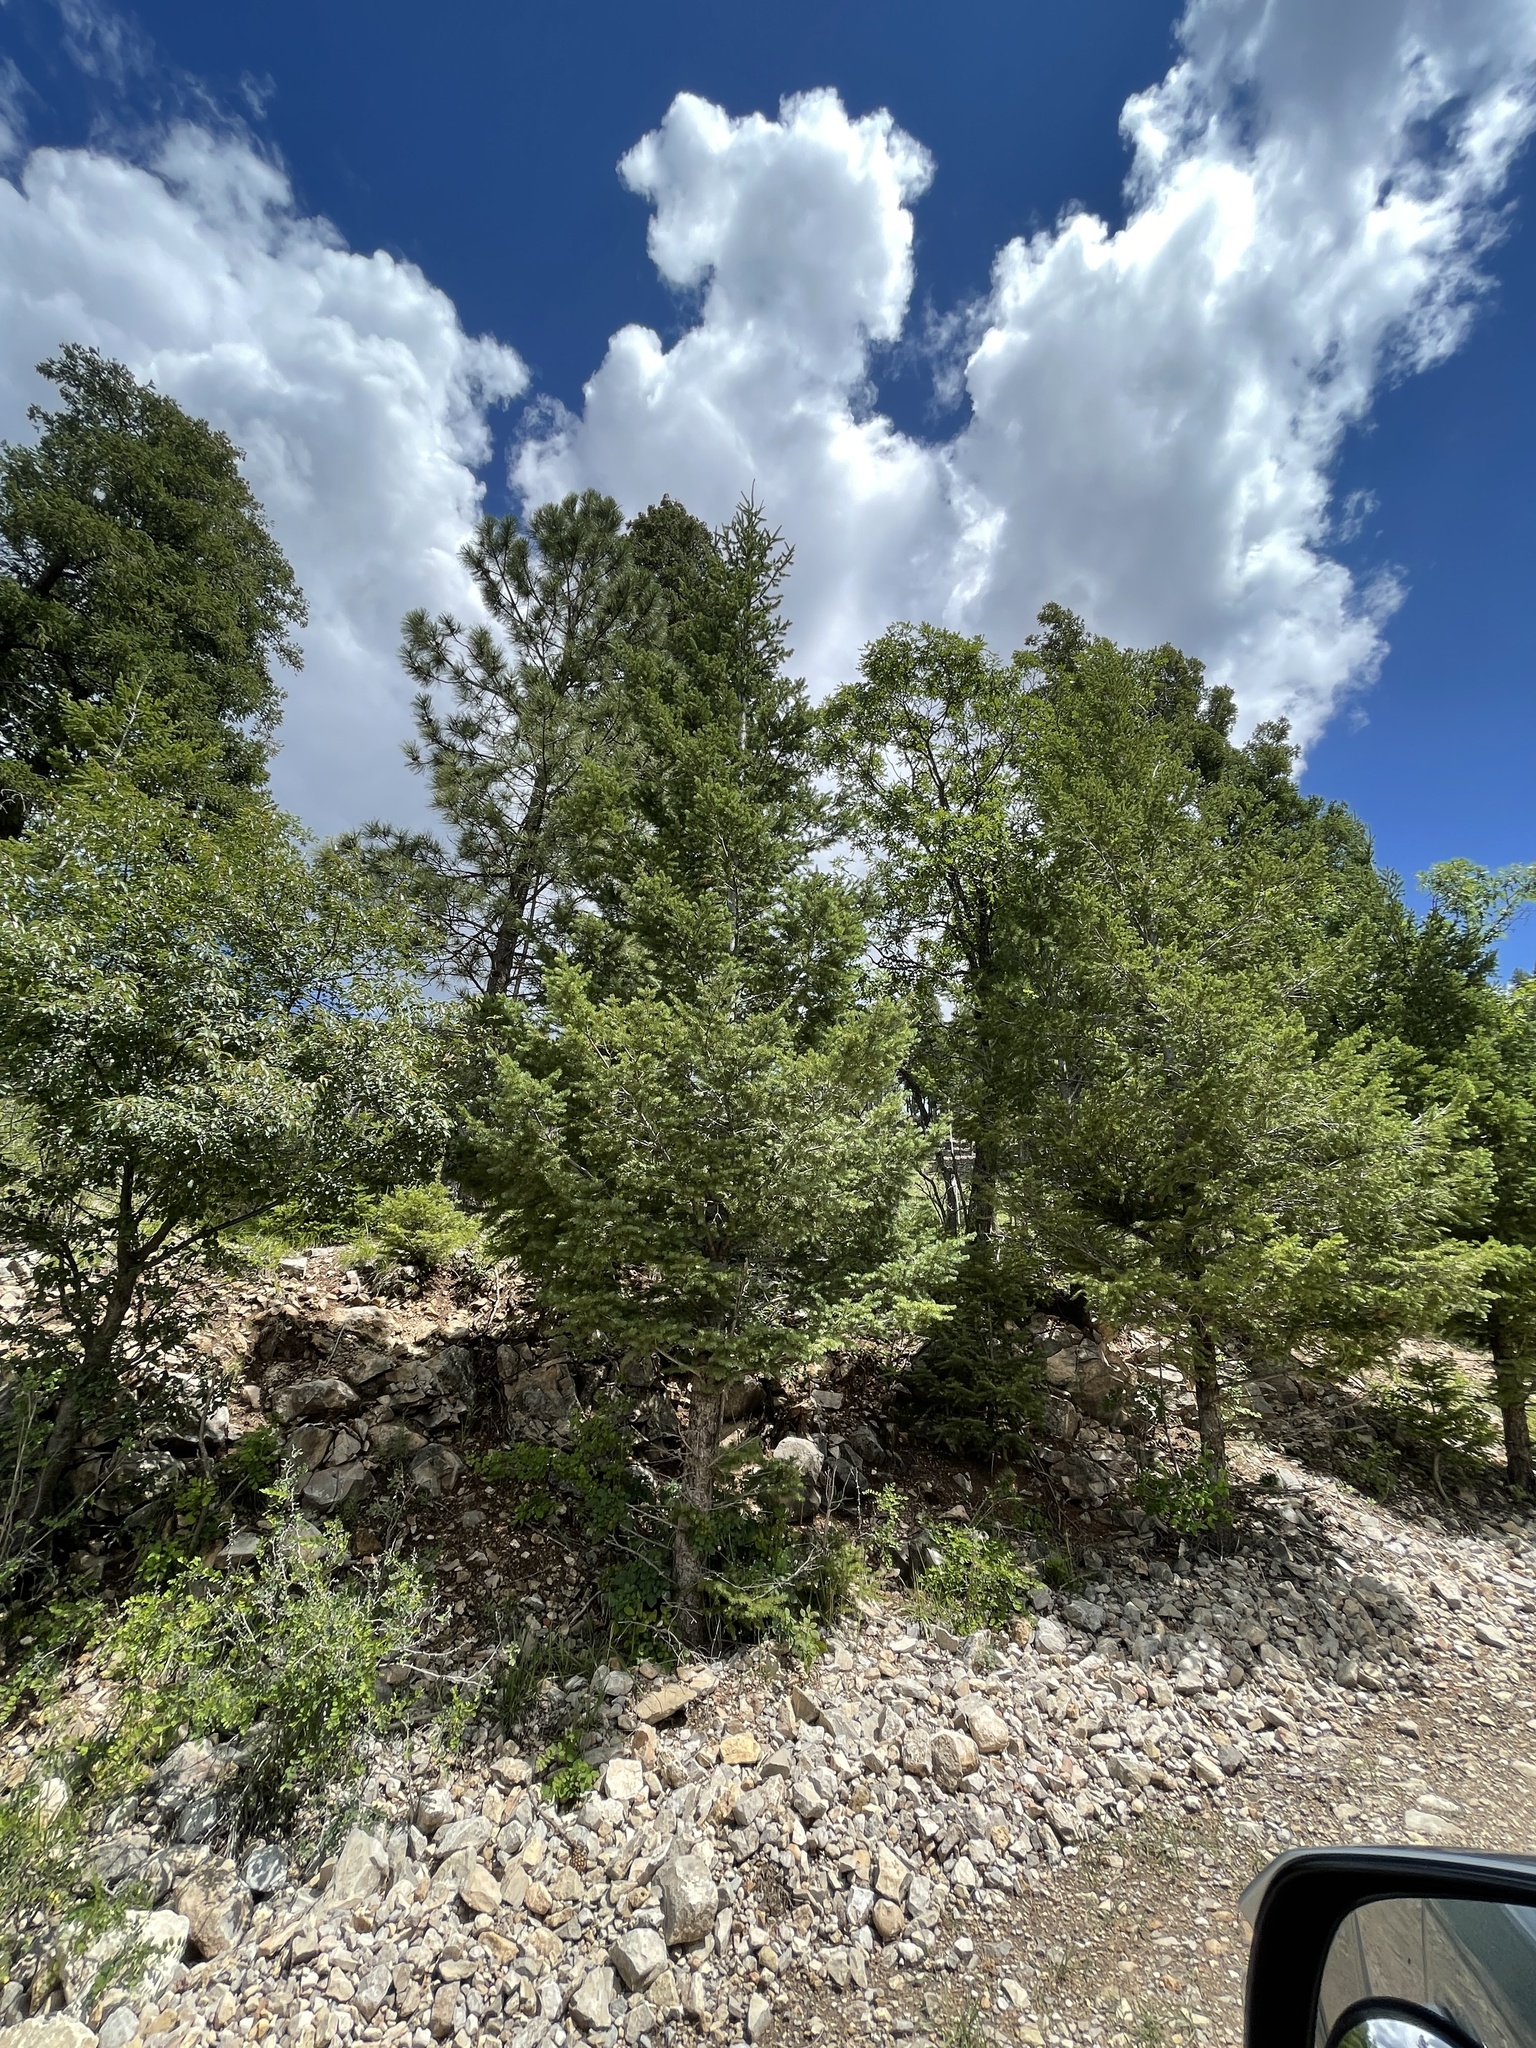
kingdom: Plantae
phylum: Tracheophyta
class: Pinopsida
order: Pinales
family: Pinaceae
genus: Pseudotsuga
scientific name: Pseudotsuga menziesii
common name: Douglas fir
